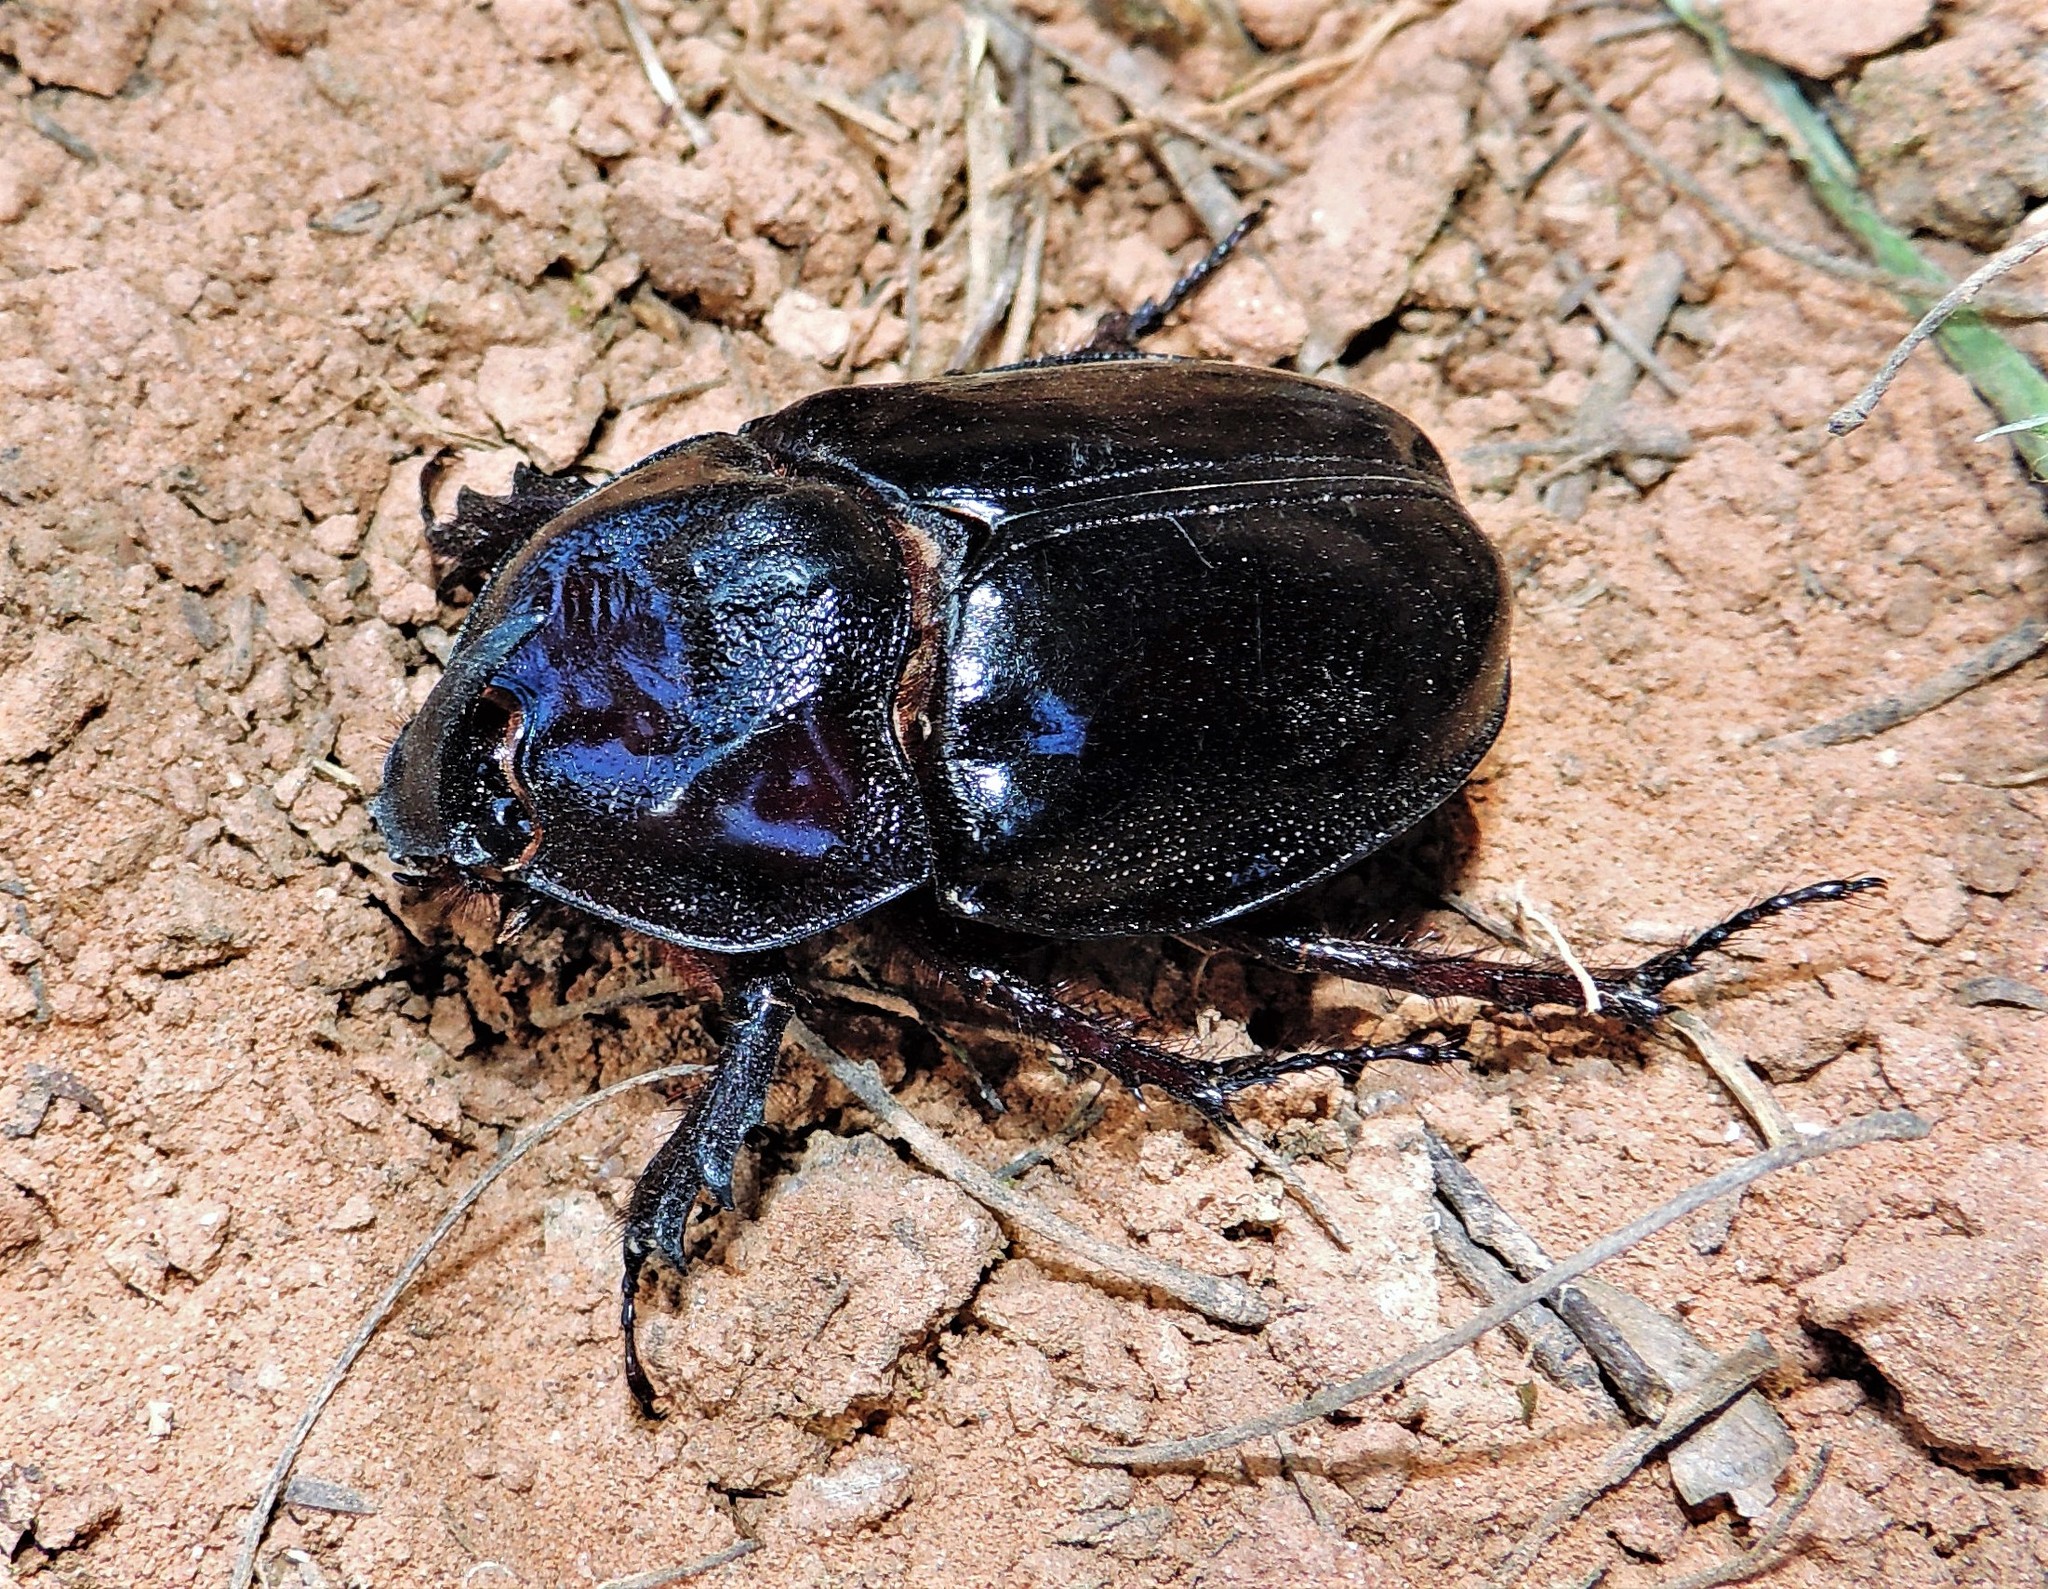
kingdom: Animalia
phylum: Arthropoda
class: Insecta
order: Coleoptera
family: Scarabaeidae
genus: Enema
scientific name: Enema pan
